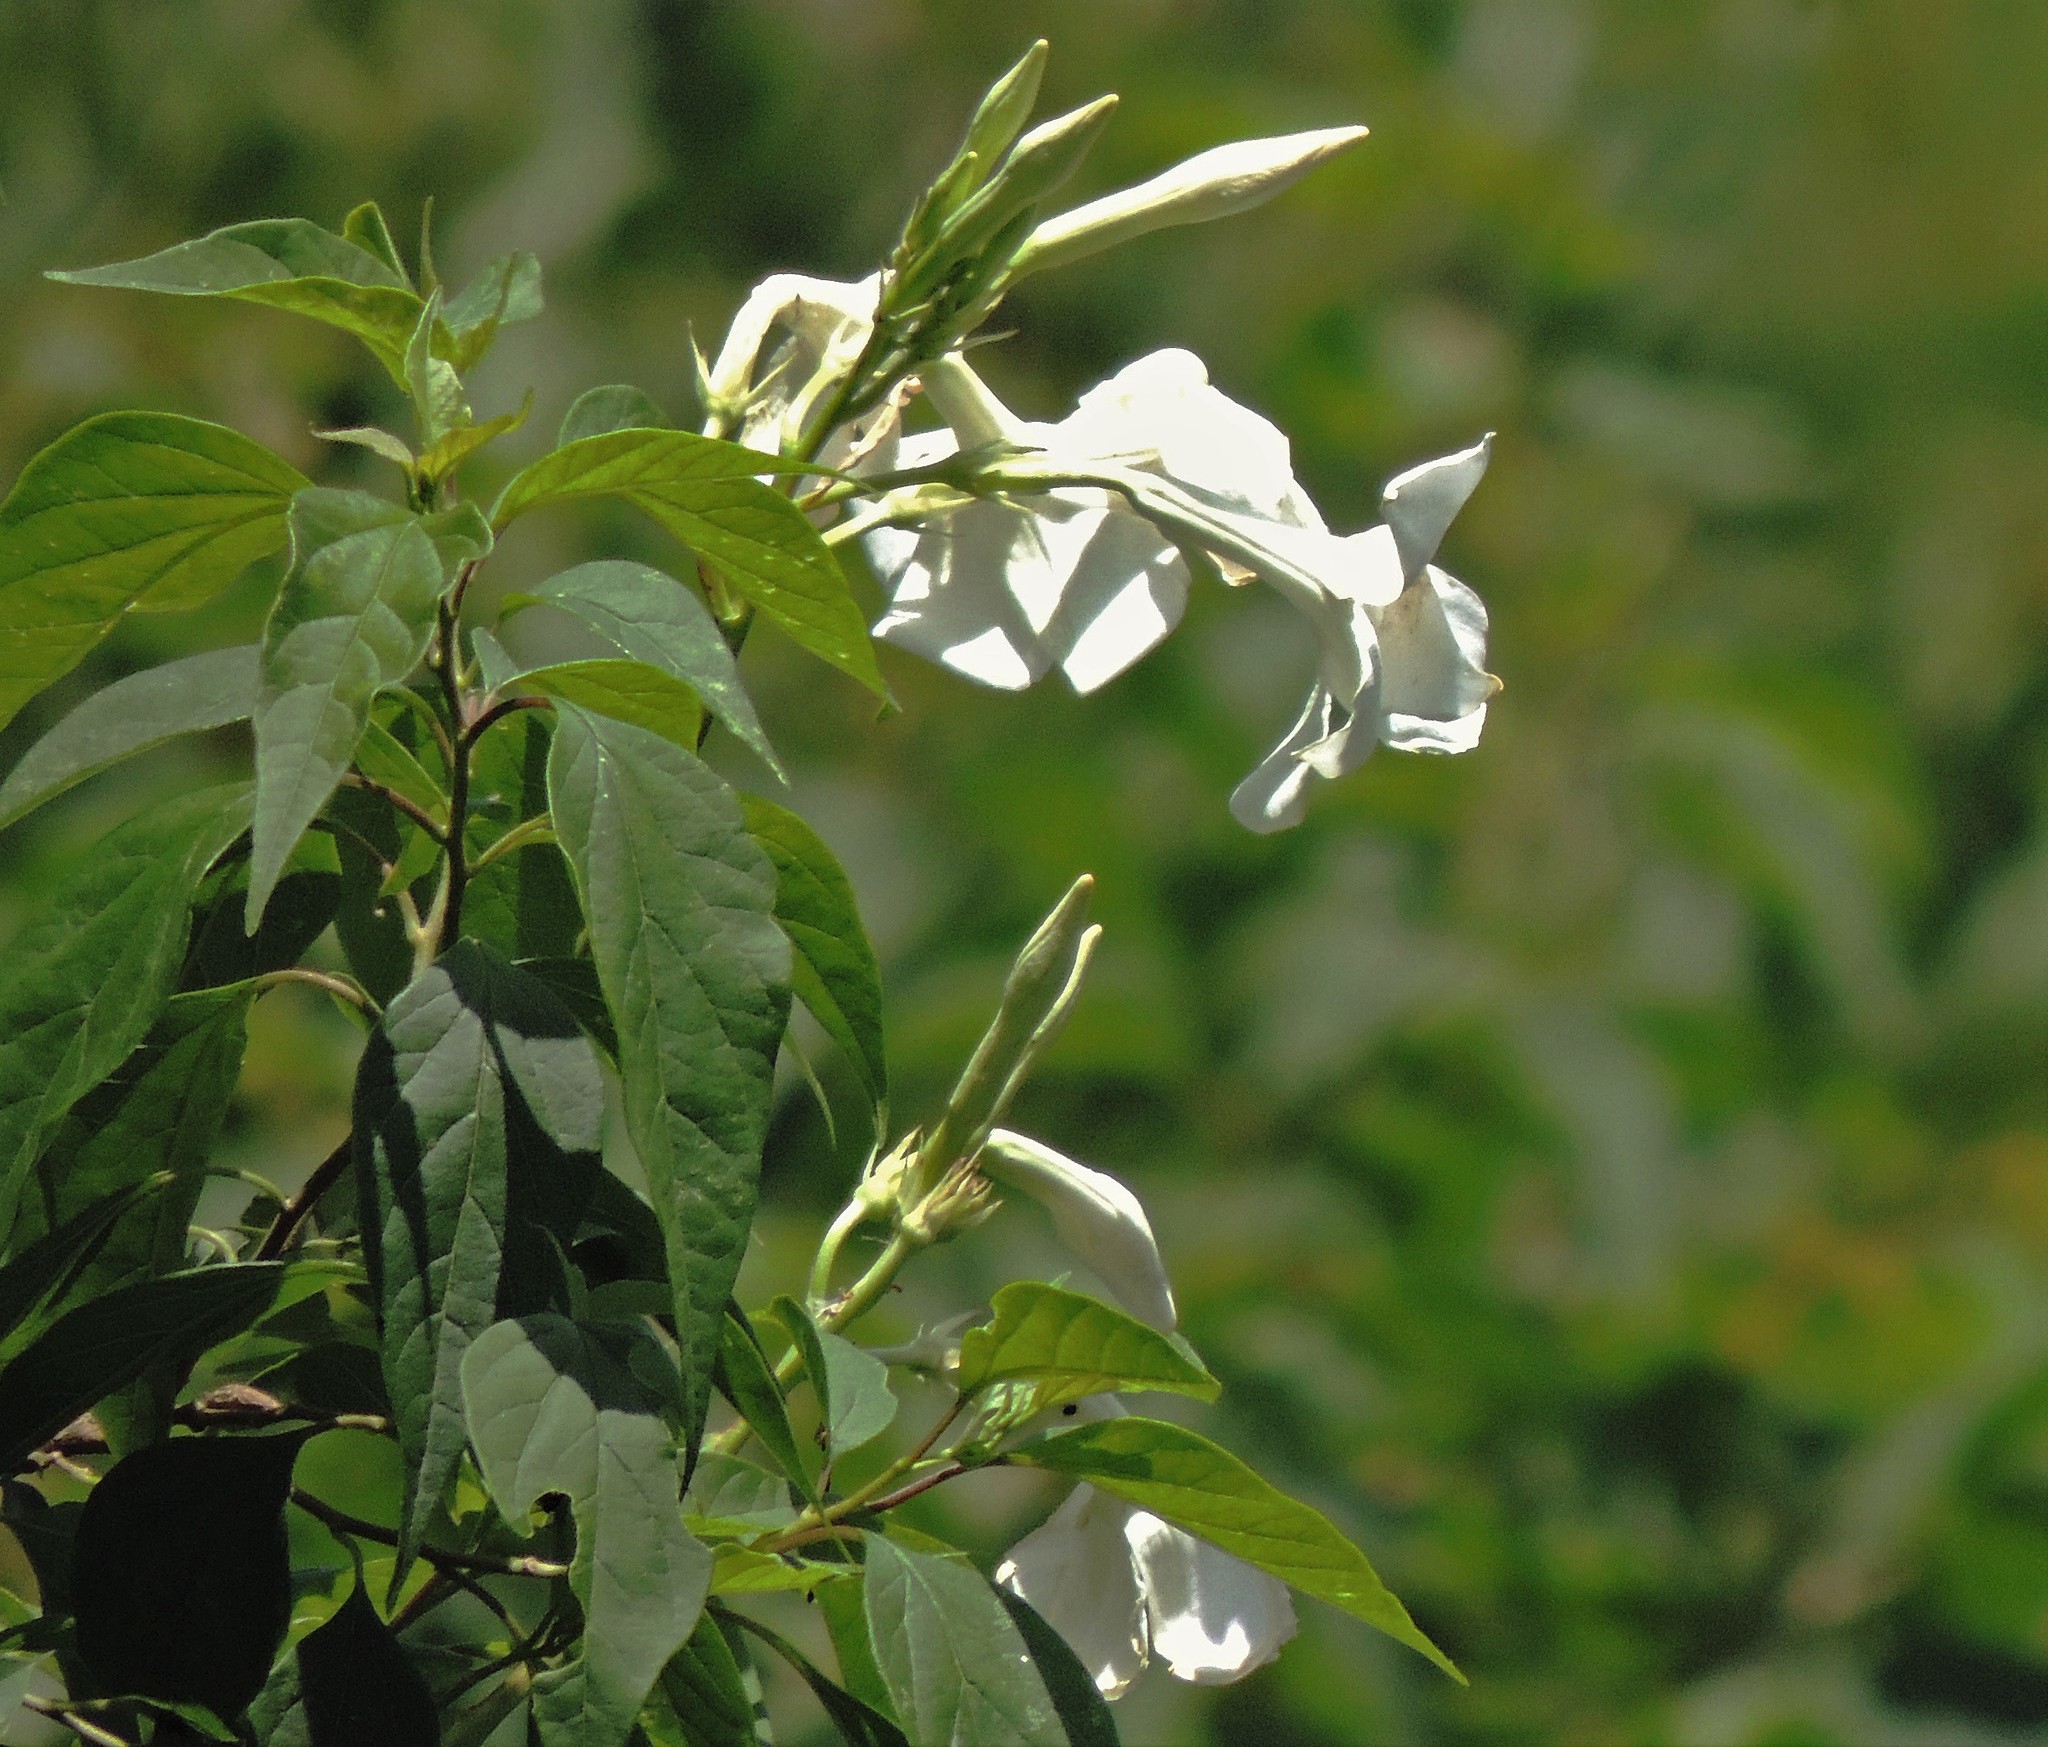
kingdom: Plantae
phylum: Tracheophyta
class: Magnoliopsida
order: Gentianales
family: Apocynaceae
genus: Mandevilla
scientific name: Mandevilla laxa
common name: Chilean-jasmine
